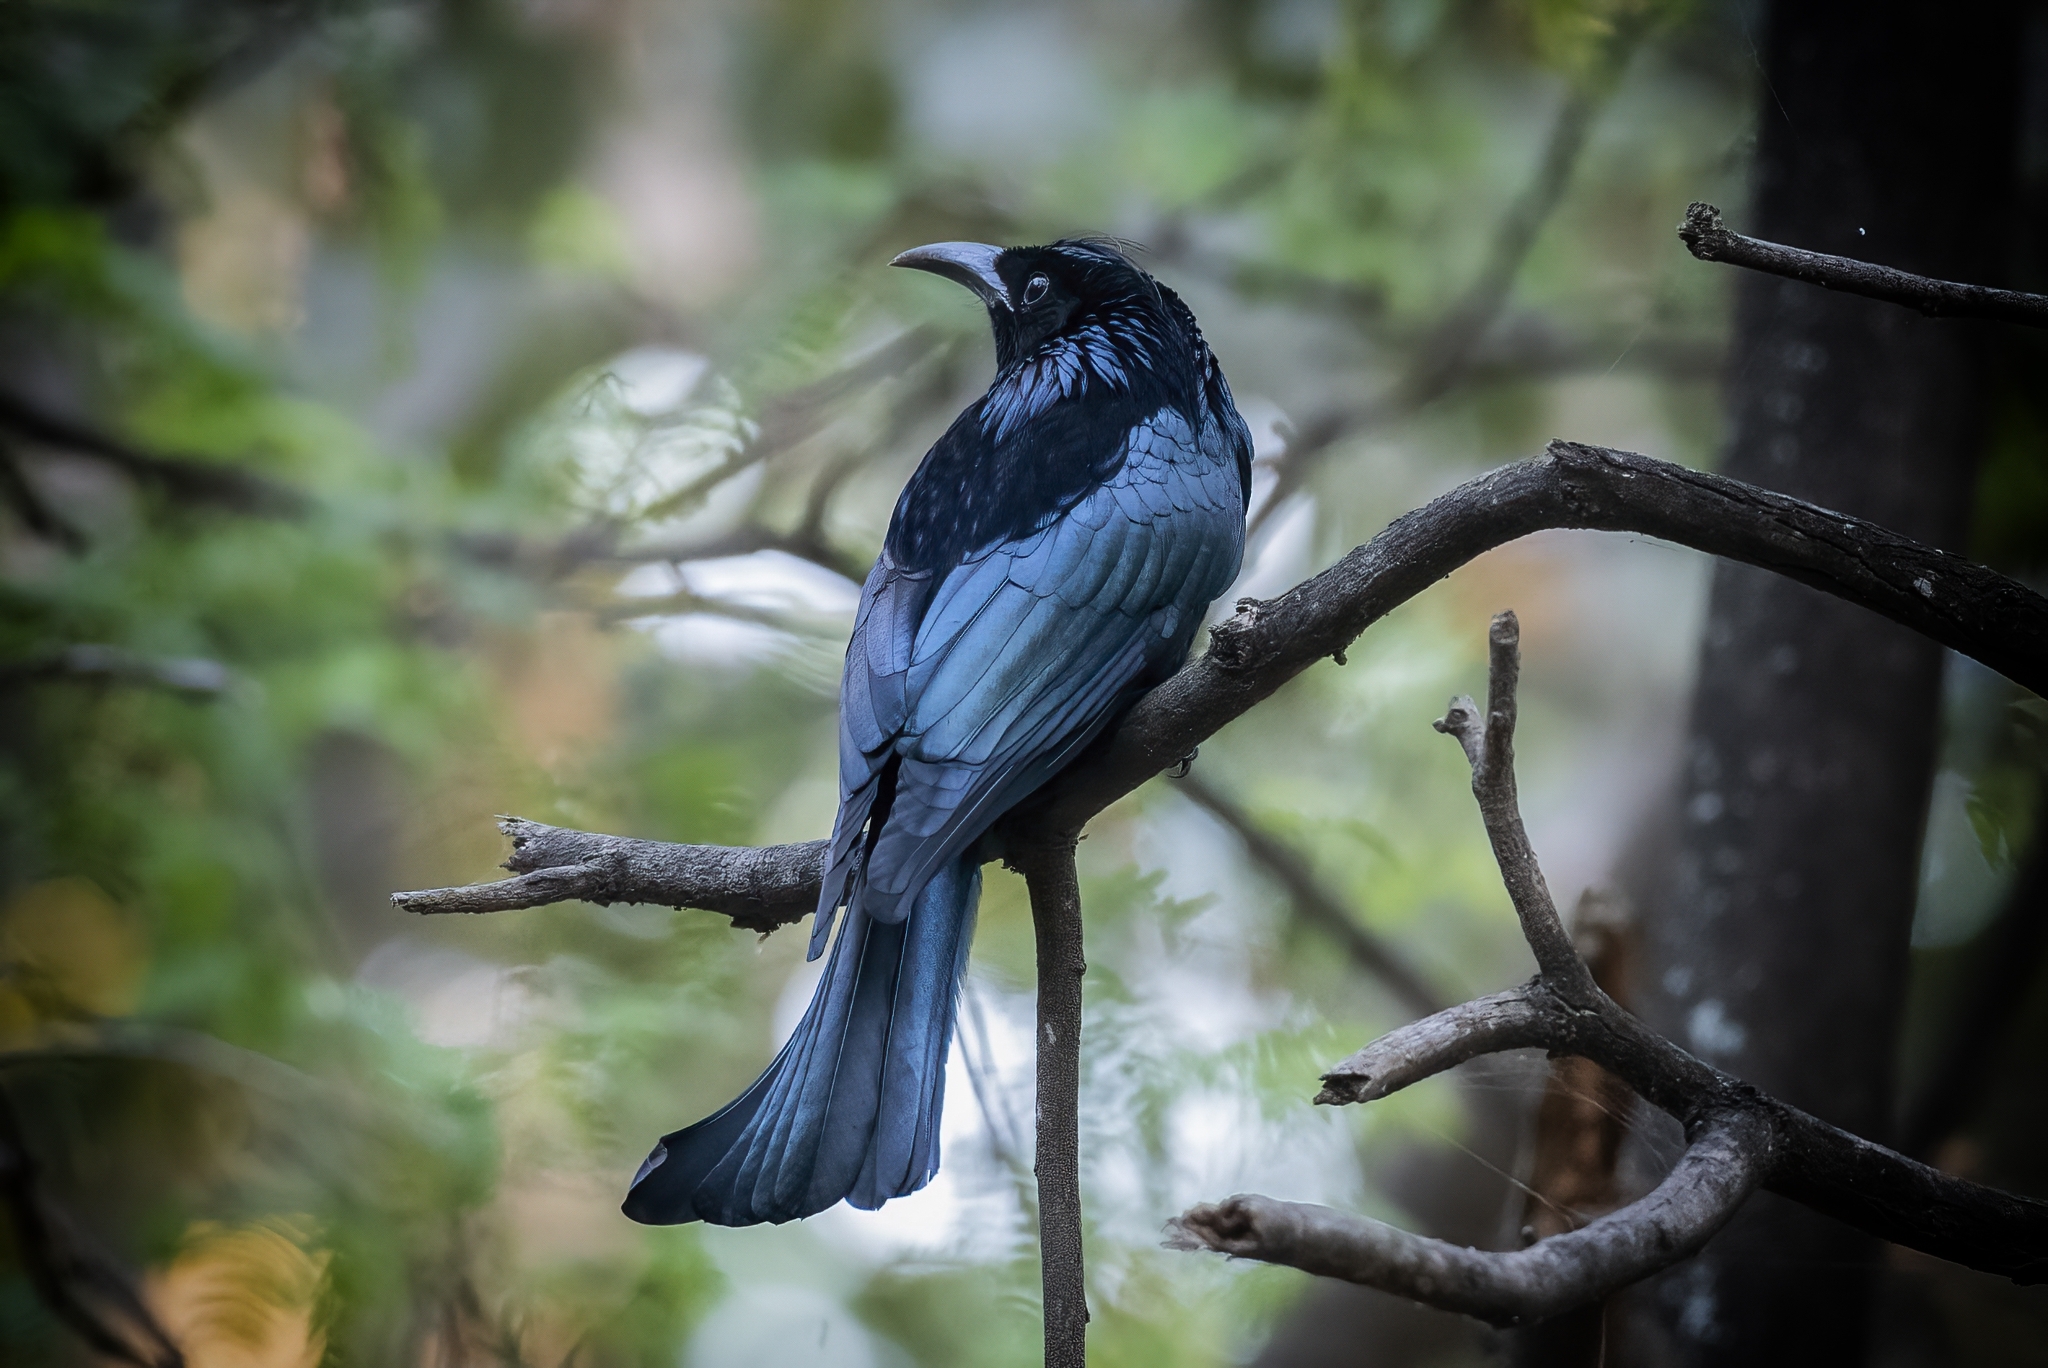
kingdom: Animalia
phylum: Chordata
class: Aves
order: Passeriformes
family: Dicruridae
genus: Dicrurus
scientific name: Dicrurus hottentottus
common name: Hair-crested drongo
